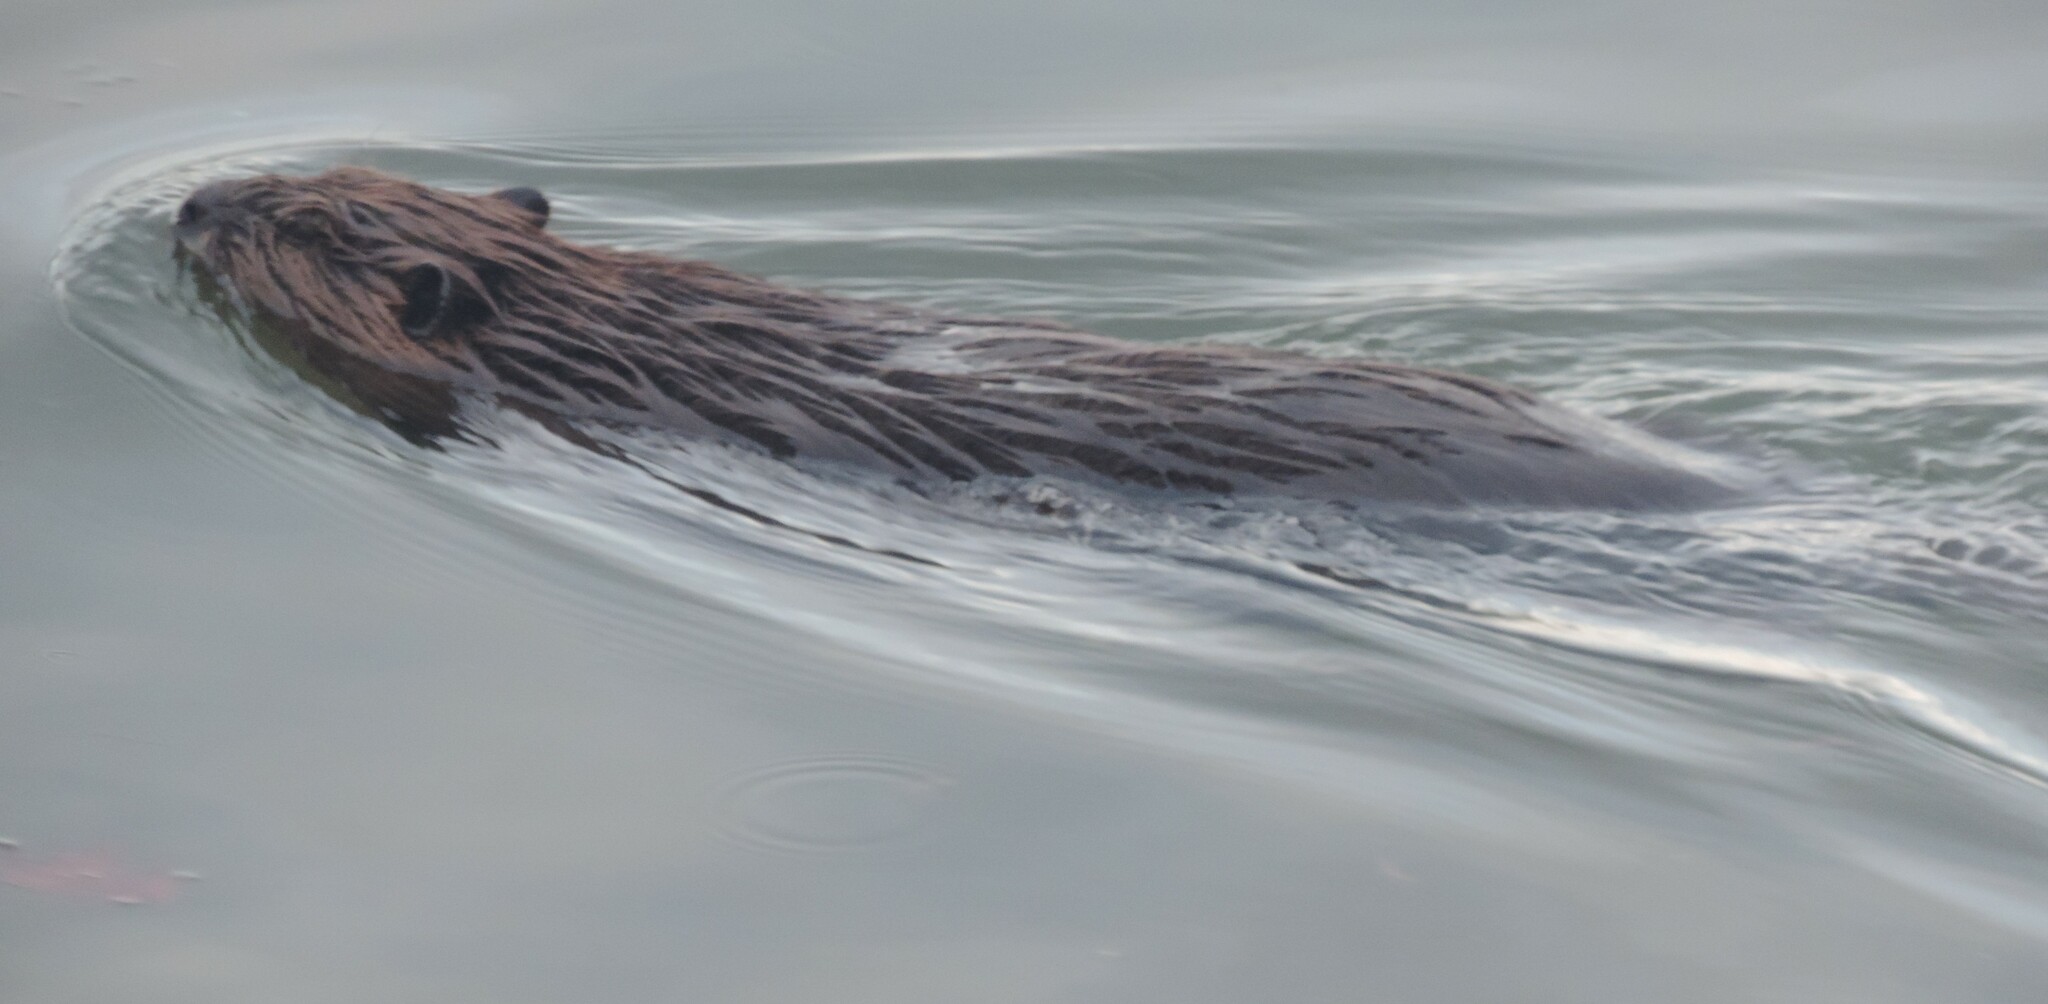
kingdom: Animalia
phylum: Chordata
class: Mammalia
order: Rodentia
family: Castoridae
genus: Castor
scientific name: Castor canadensis
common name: American beaver
